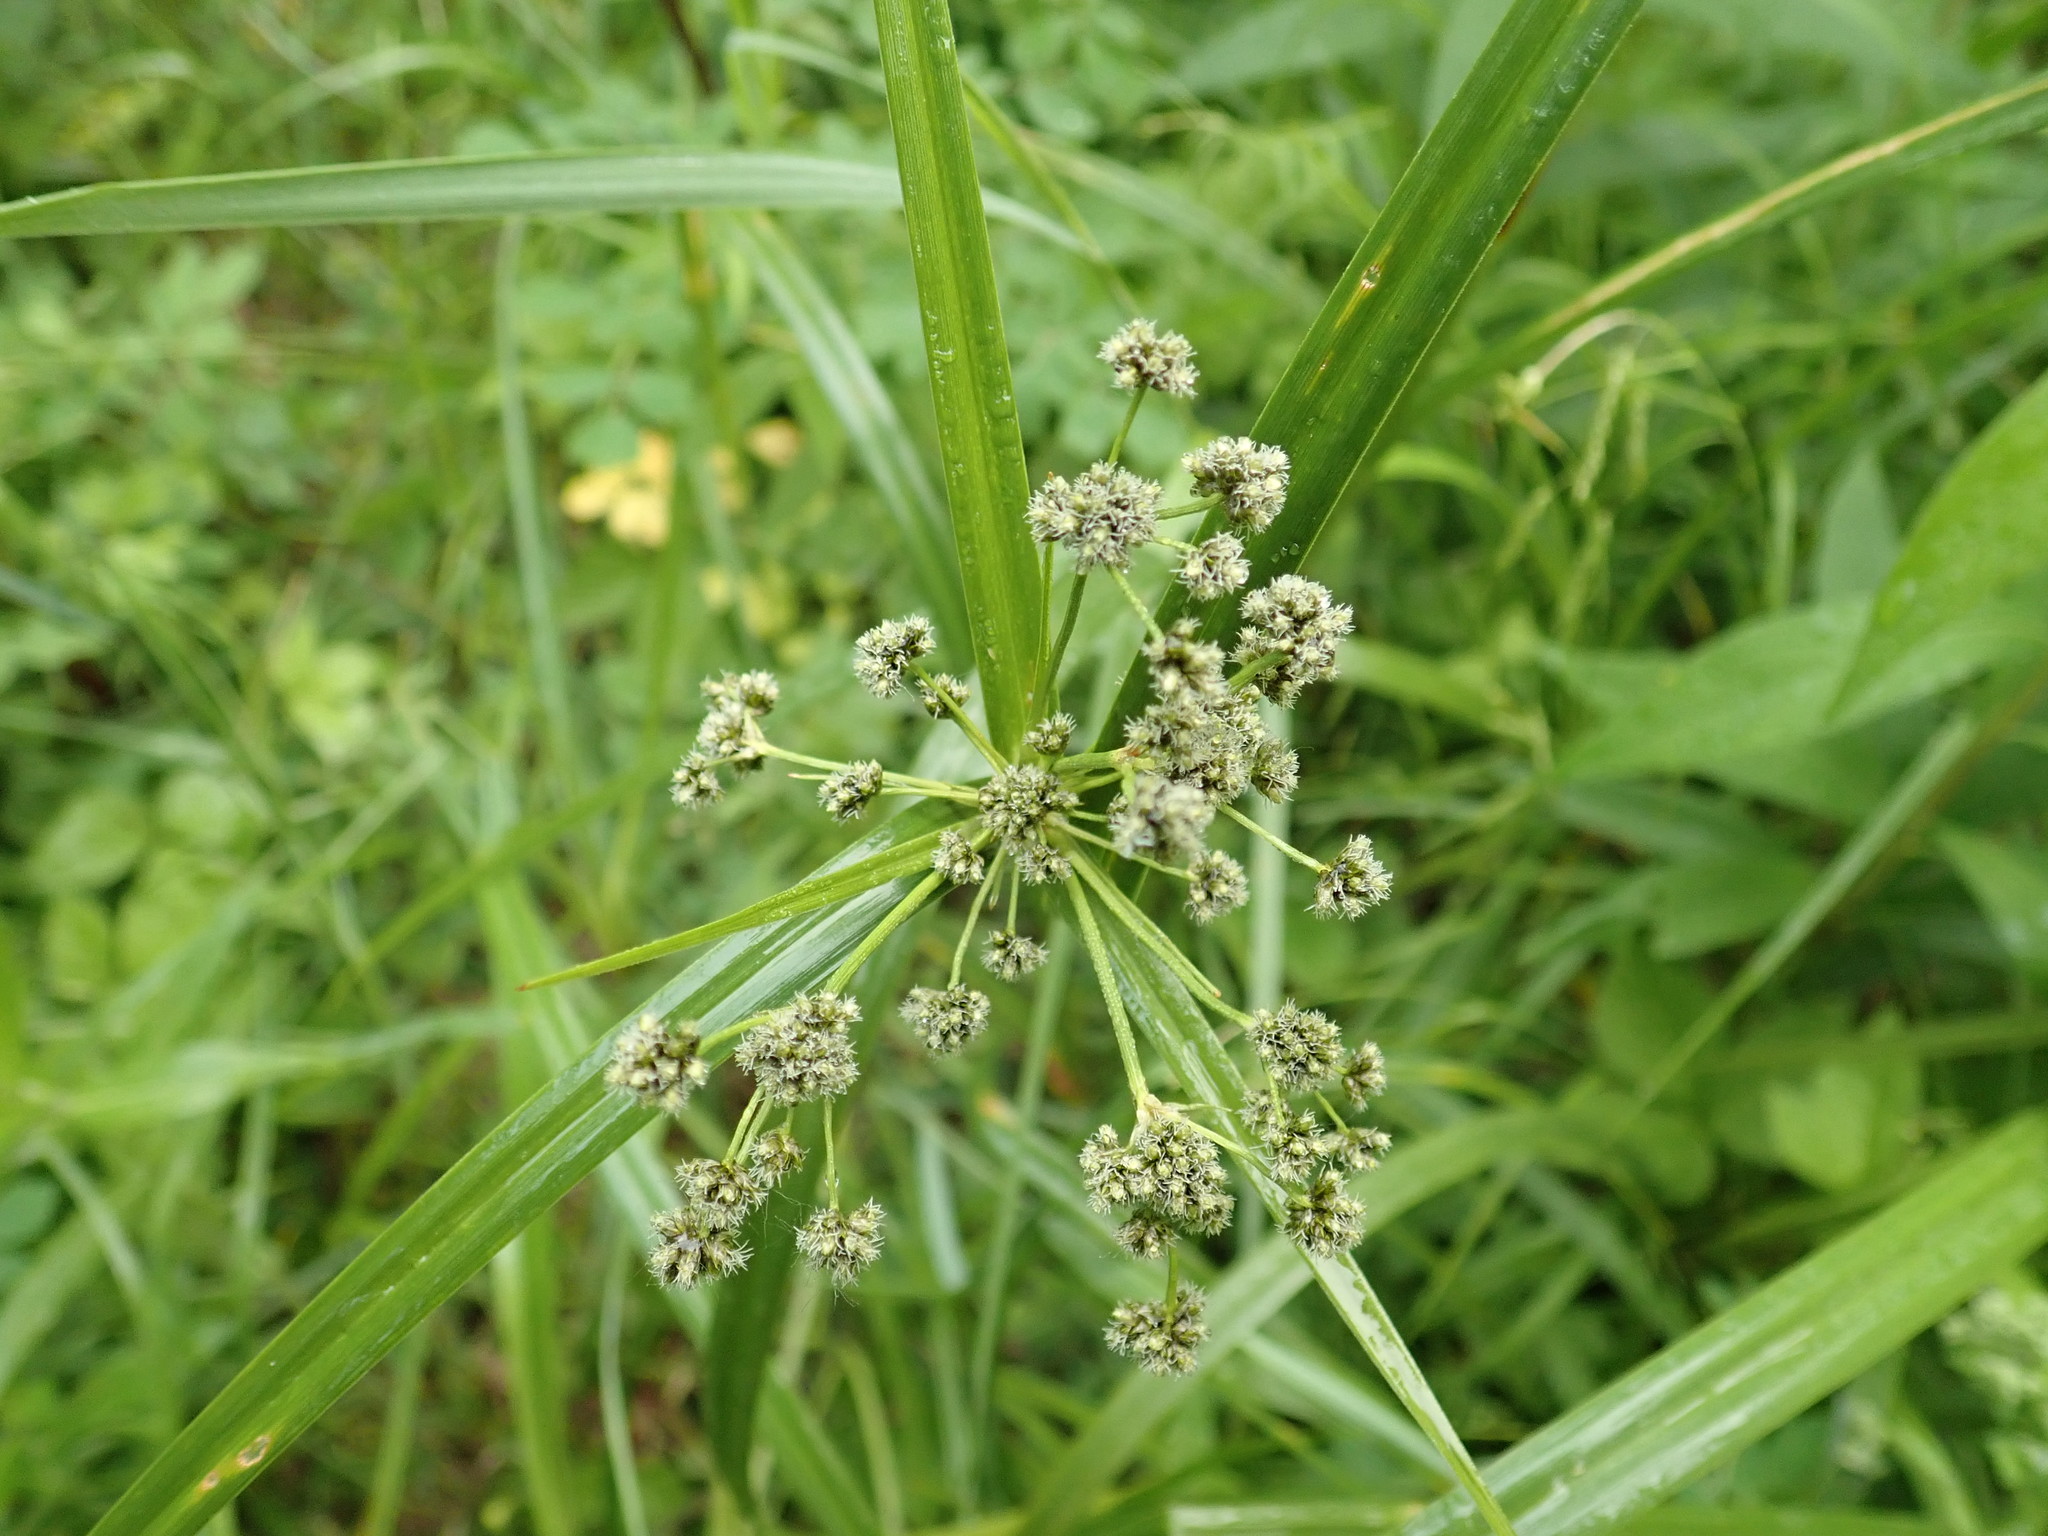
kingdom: Plantae
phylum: Tracheophyta
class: Liliopsida
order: Poales
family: Cyperaceae
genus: Scirpus
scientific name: Scirpus microcarpus
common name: Panicled bulrush
